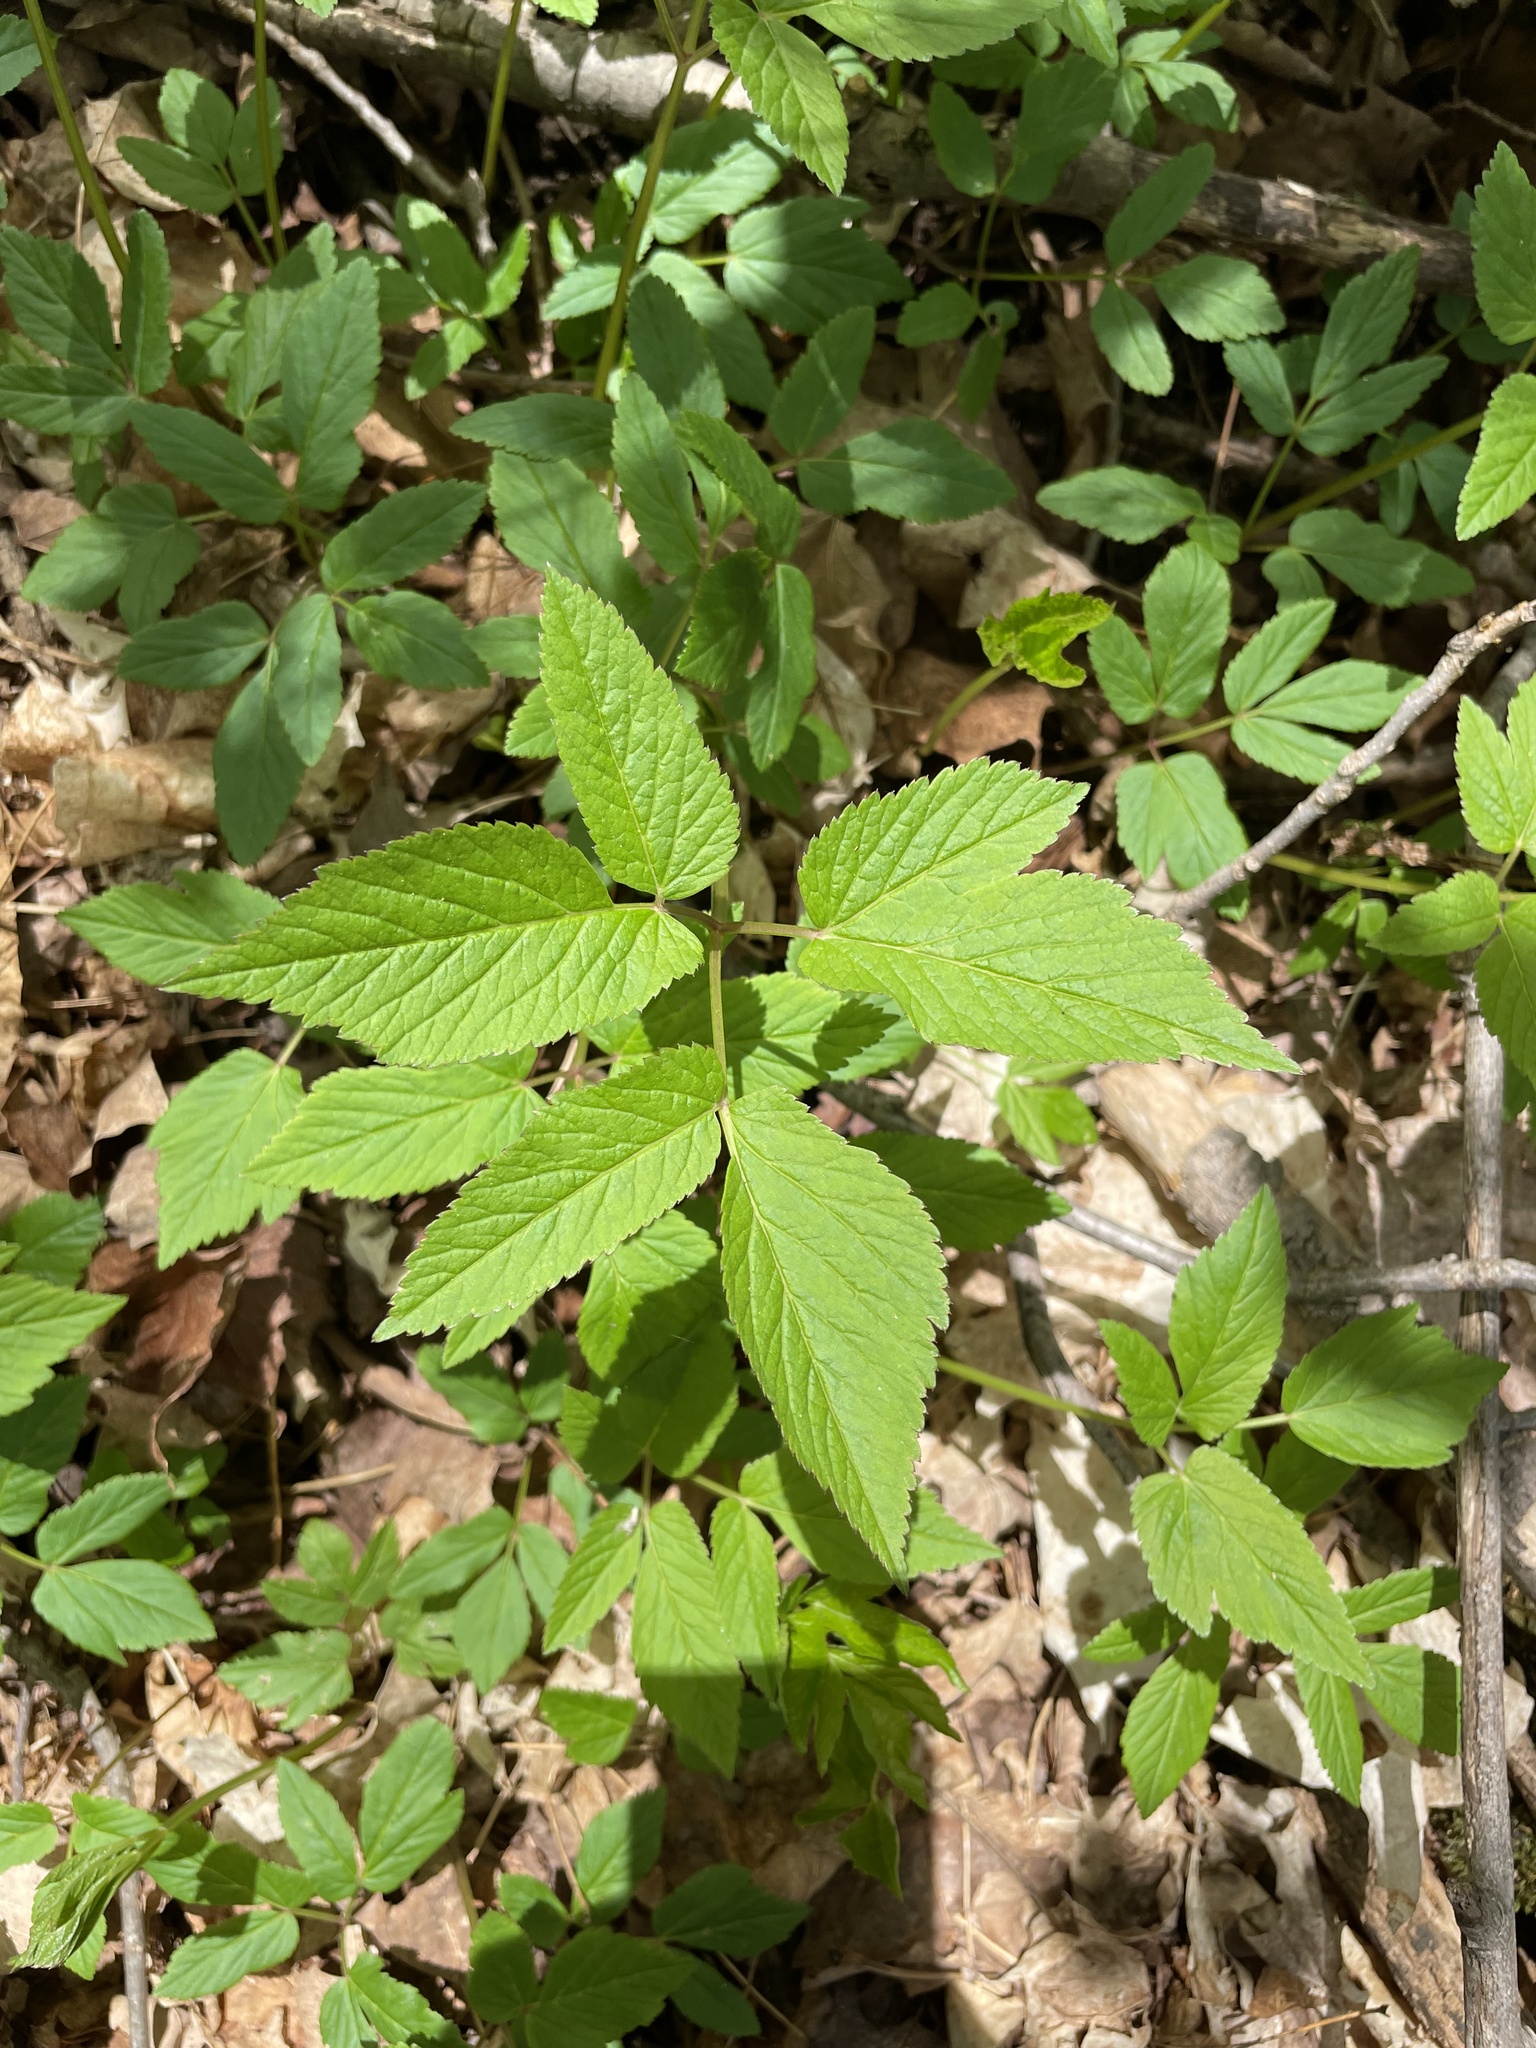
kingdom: Plantae
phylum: Tracheophyta
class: Magnoliopsida
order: Apiales
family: Apiaceae
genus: Aegopodium
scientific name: Aegopodium podagraria
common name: Ground-elder
